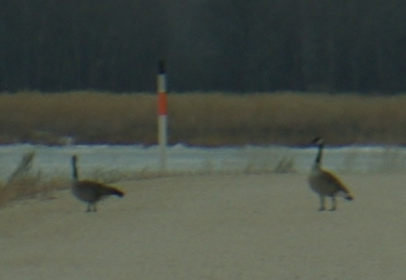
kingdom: Animalia
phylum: Chordata
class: Aves
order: Anseriformes
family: Anatidae
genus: Branta
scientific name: Branta canadensis
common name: Canada goose
